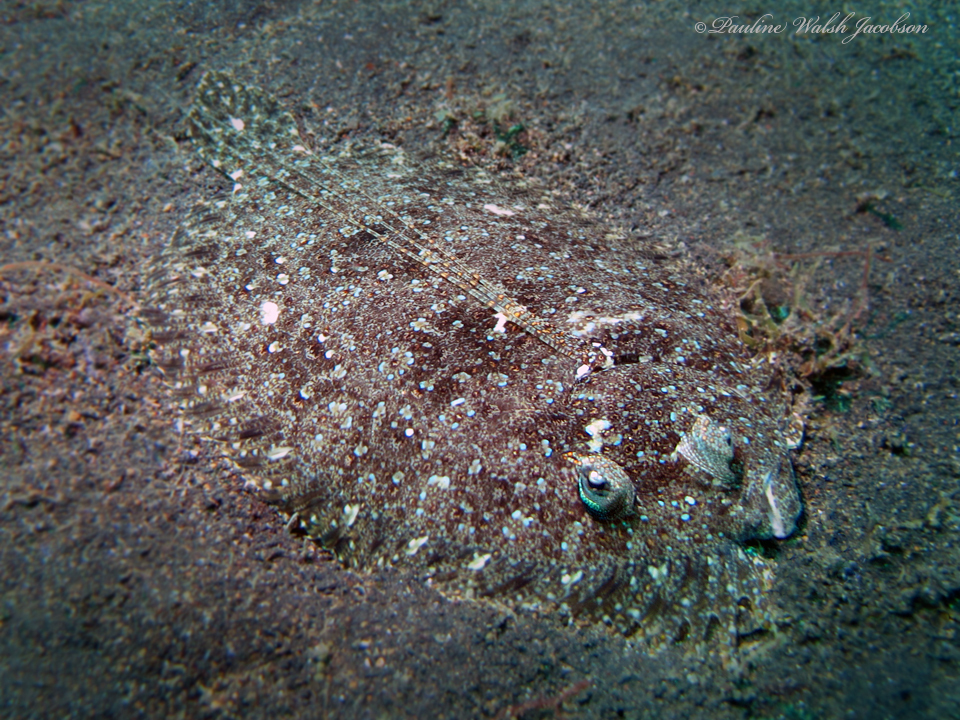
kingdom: Animalia
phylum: Chordata
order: Pleuronectiformes
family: Bothidae
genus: Bothus
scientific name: Bothus pantherinus
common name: Leopard flounder
